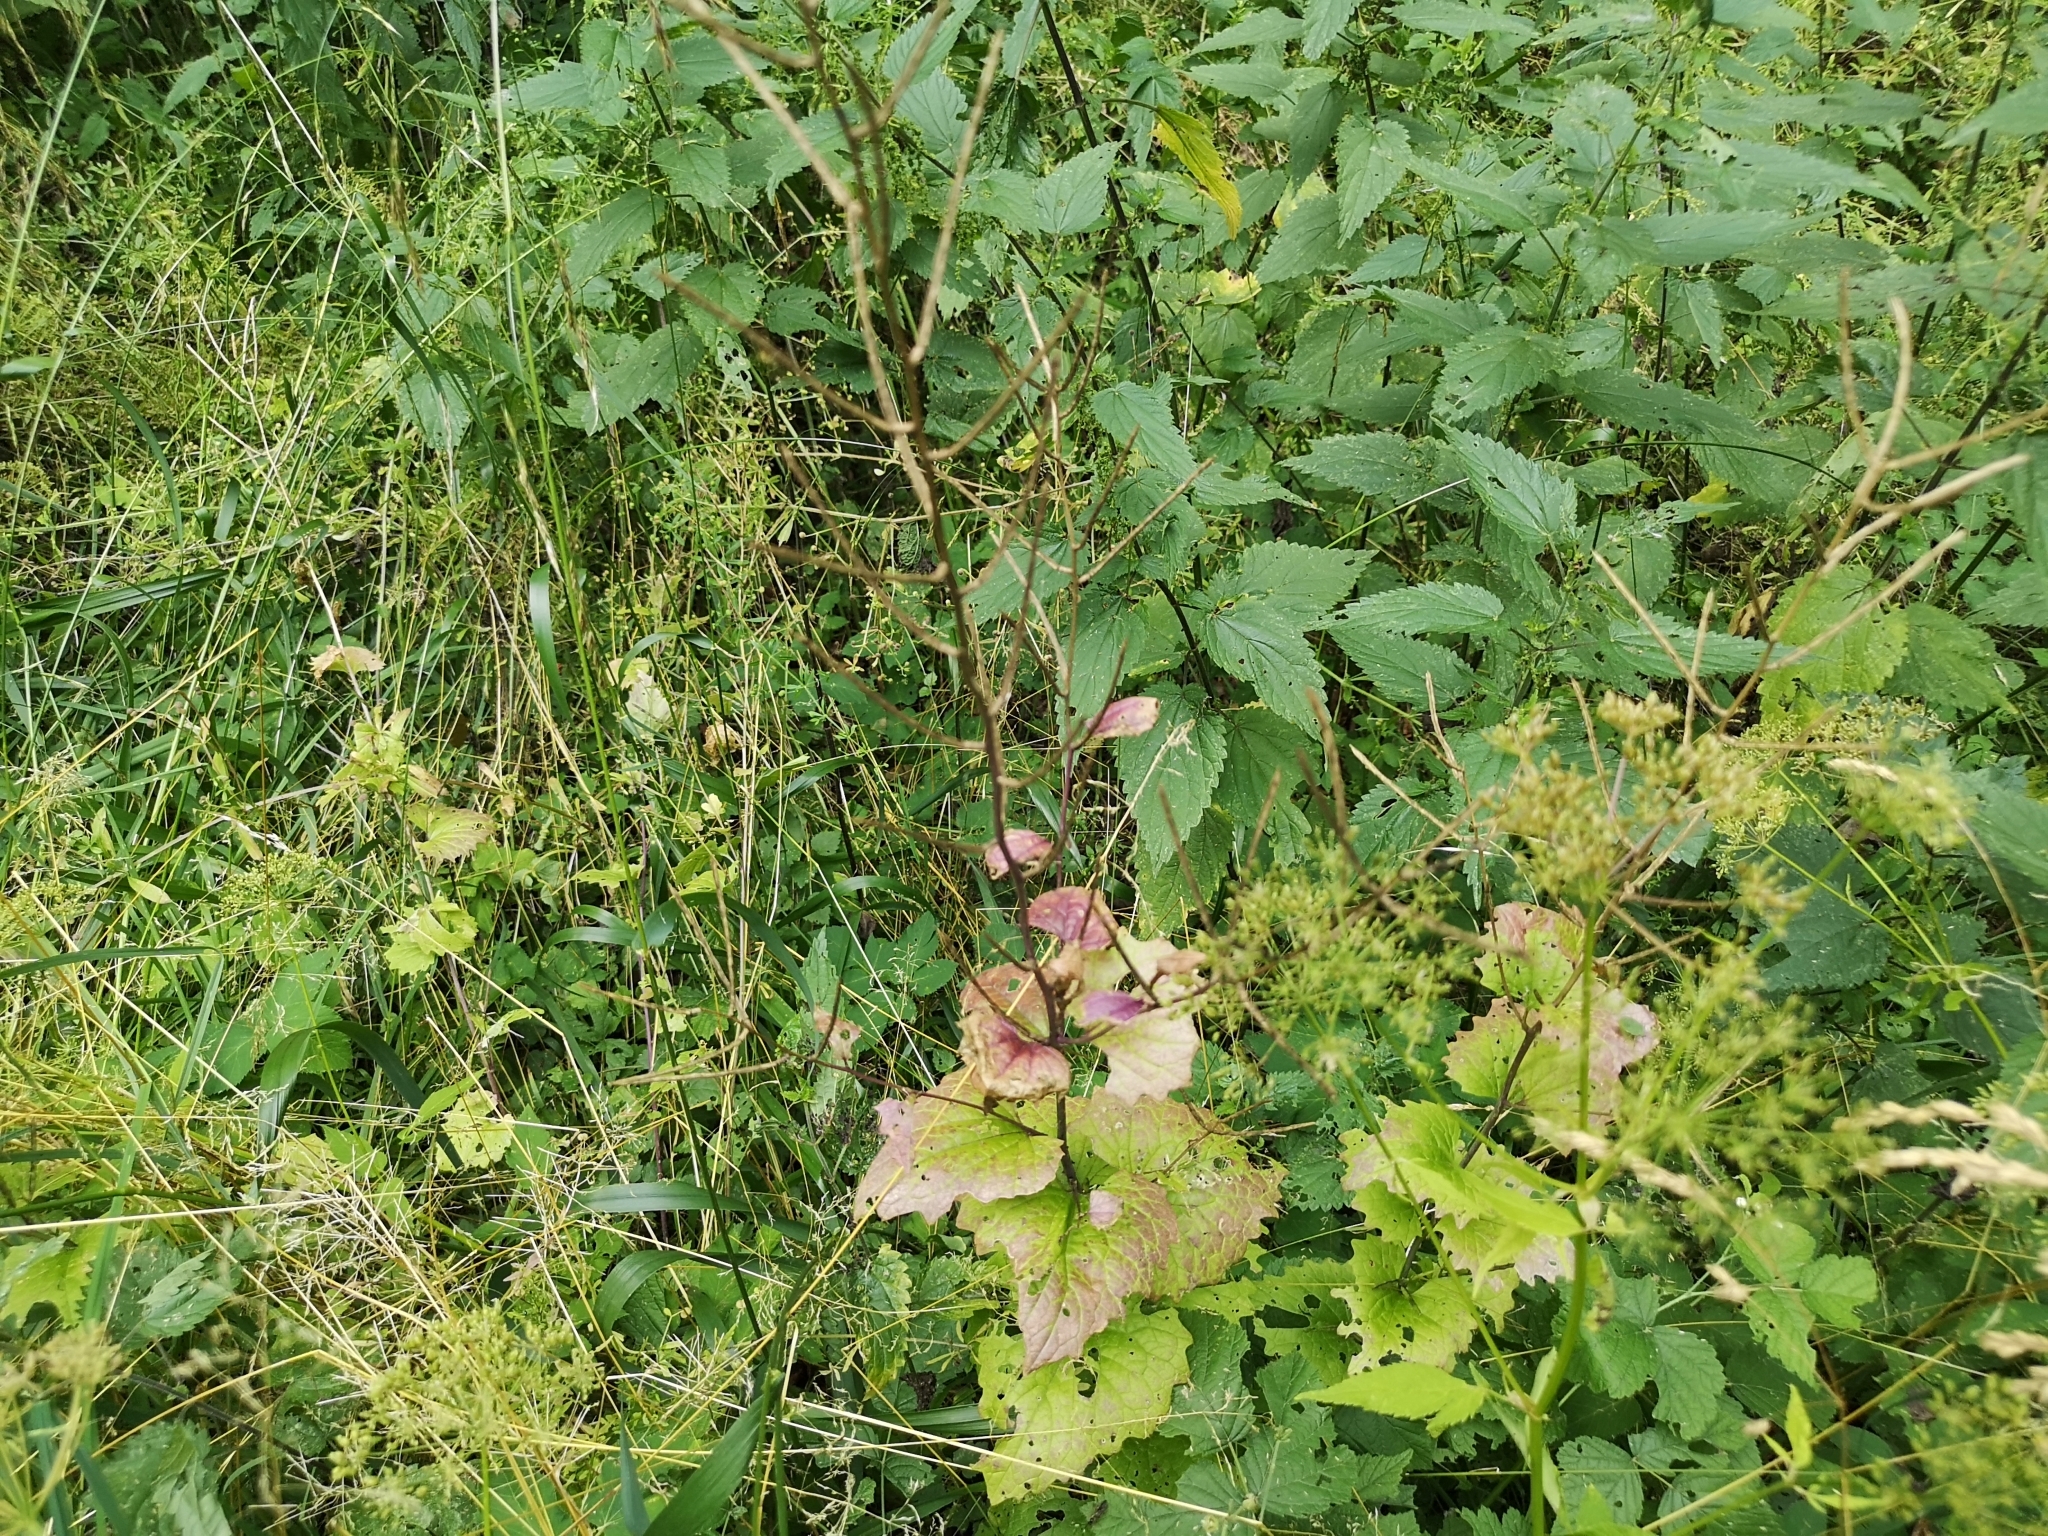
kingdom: Plantae
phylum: Tracheophyta
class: Magnoliopsida
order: Brassicales
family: Brassicaceae
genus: Alliaria
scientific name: Alliaria petiolata
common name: Garlic mustard
